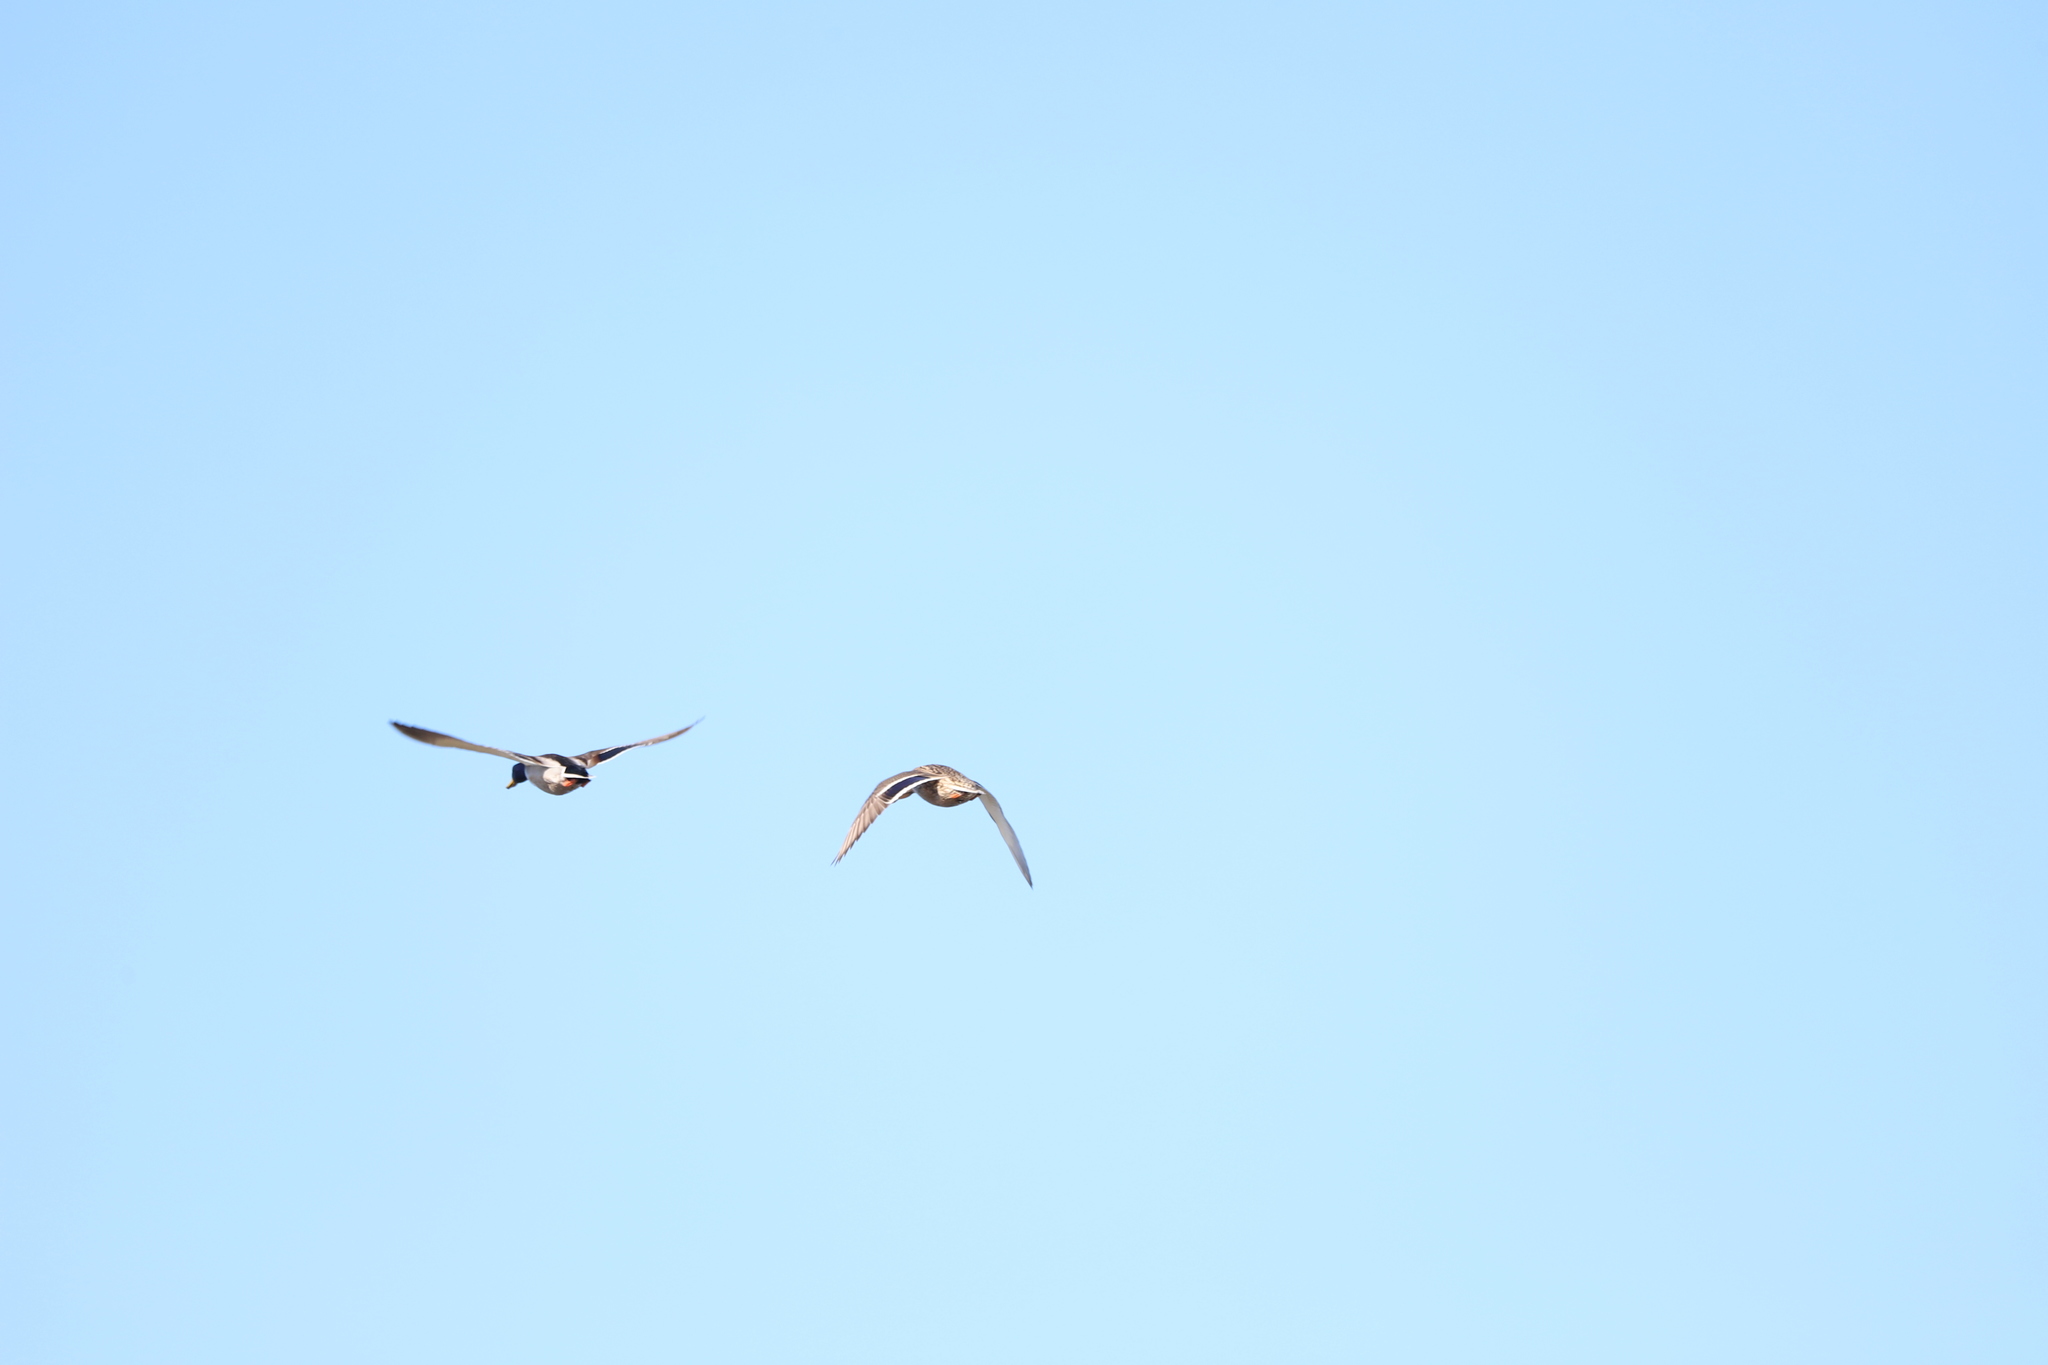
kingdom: Animalia
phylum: Chordata
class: Aves
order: Anseriformes
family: Anatidae
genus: Anas
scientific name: Anas platyrhynchos
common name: Mallard
